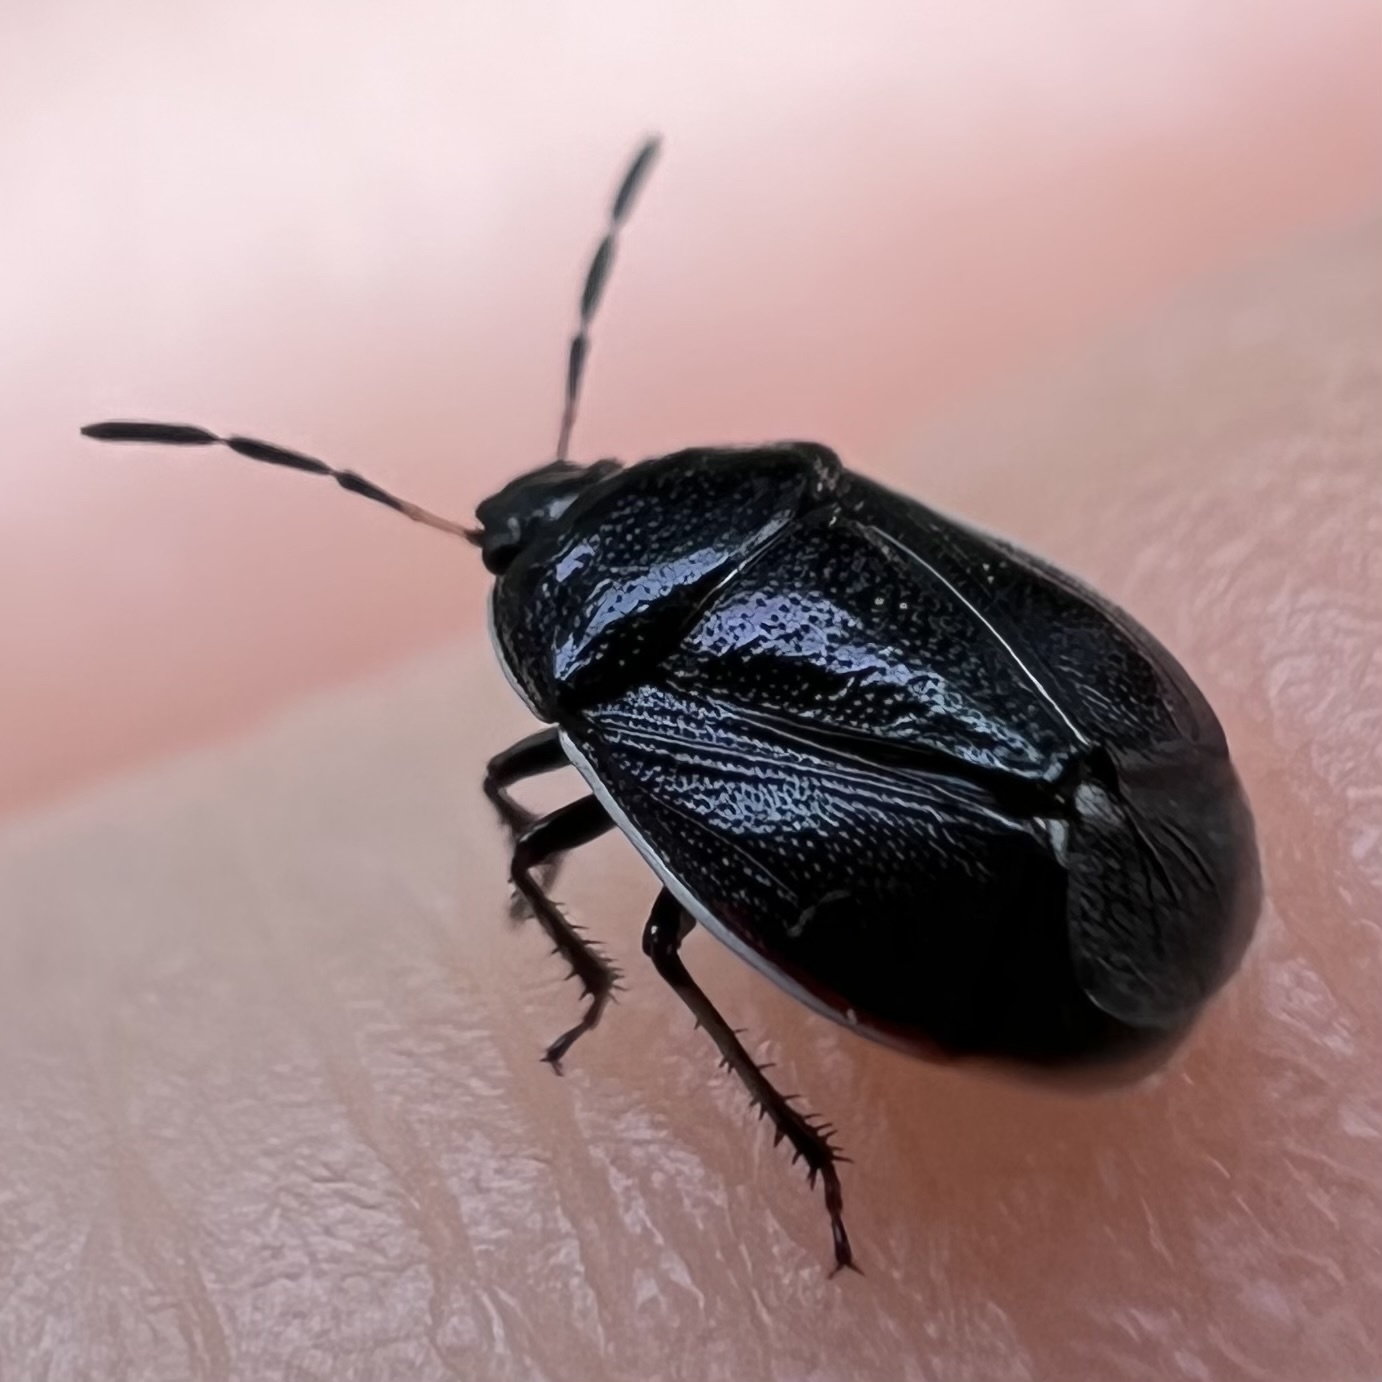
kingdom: Animalia
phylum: Arthropoda
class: Insecta
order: Hemiptera
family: Cydnidae
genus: Sehirus
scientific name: Sehirus cinctus
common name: White-margined burrower bug
